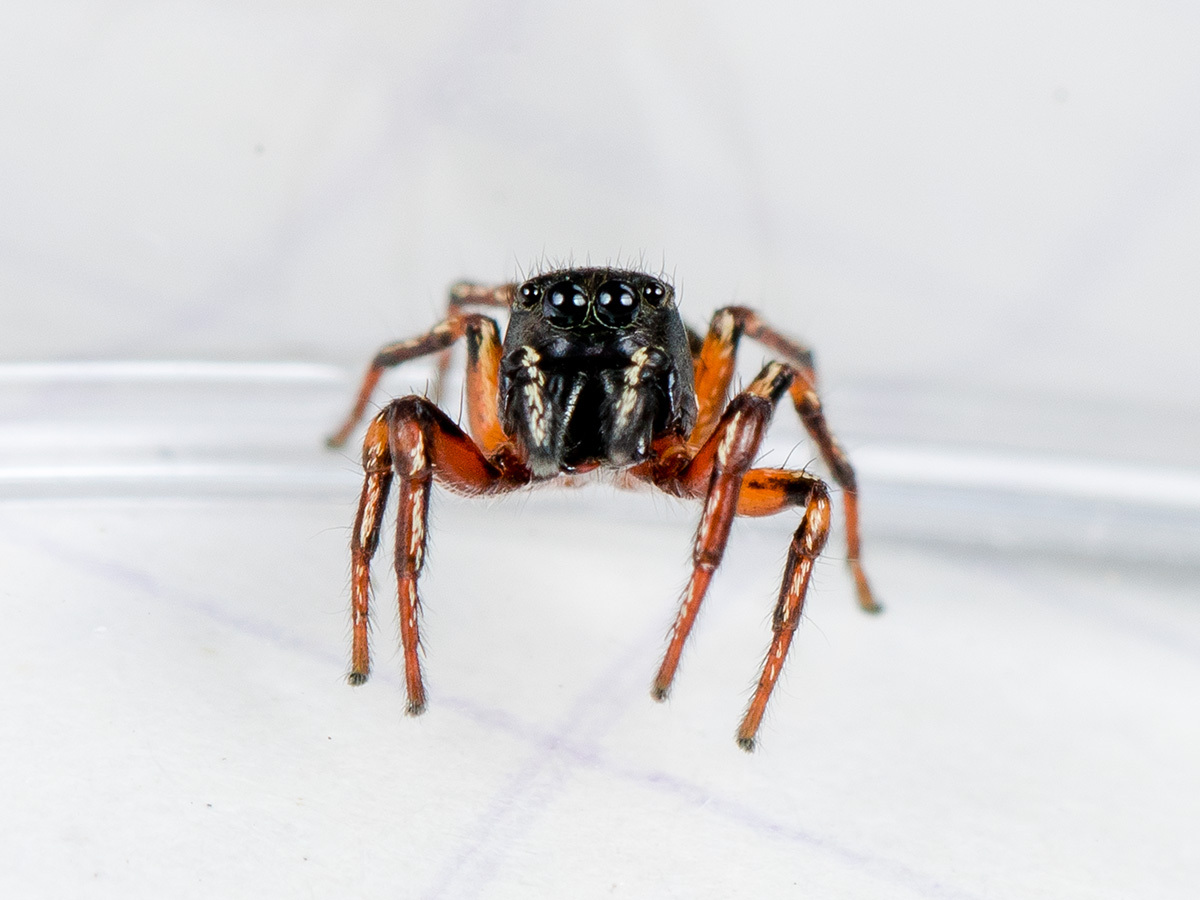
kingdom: Animalia
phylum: Arthropoda
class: Arachnida
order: Araneae
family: Salticidae
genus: Heliophanus
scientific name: Heliophanus wesolowskae
